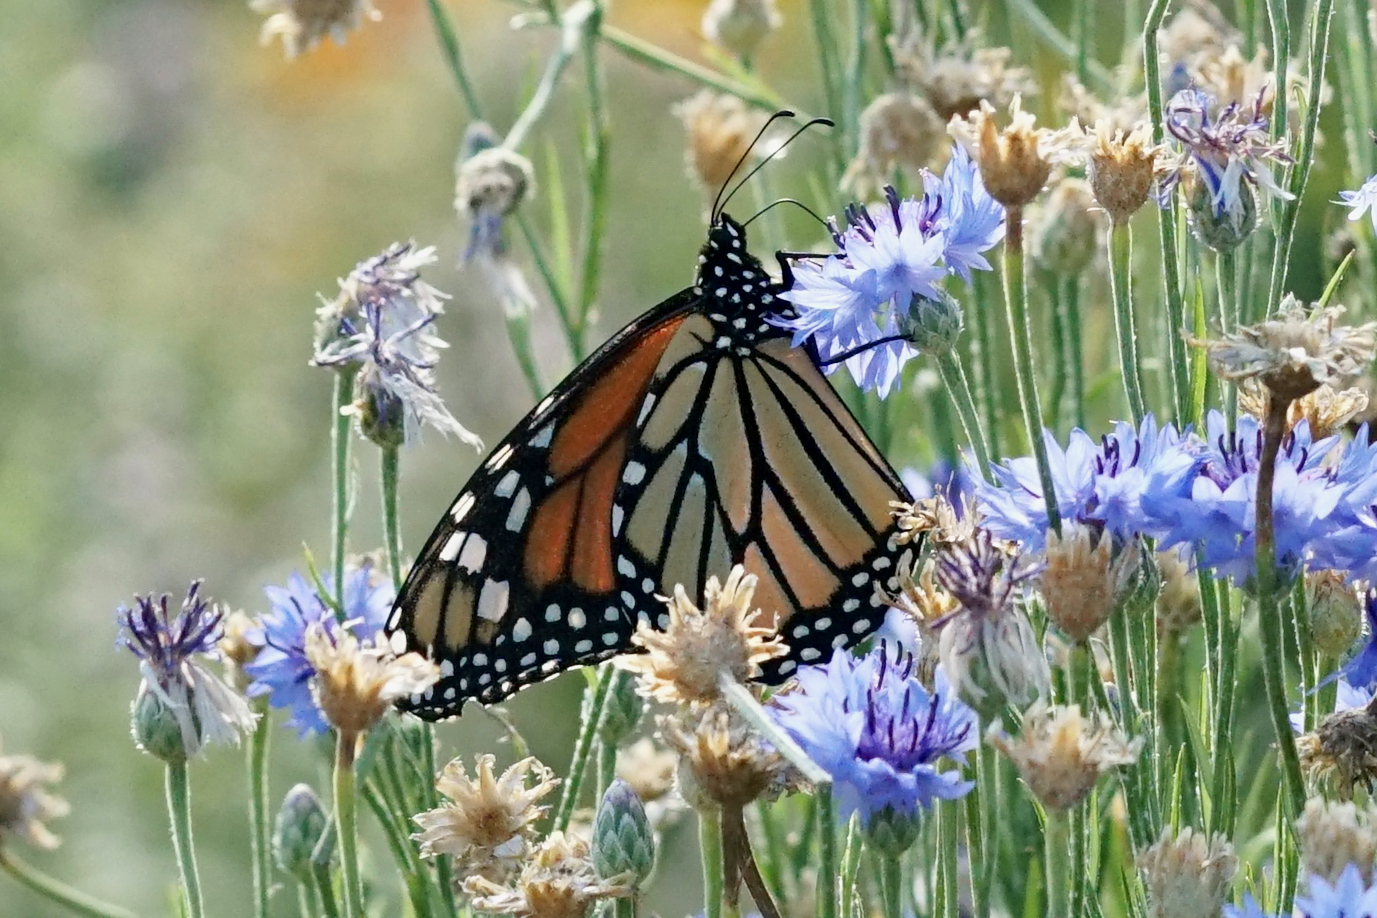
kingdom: Animalia
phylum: Arthropoda
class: Insecta
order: Lepidoptera
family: Nymphalidae
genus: Danaus
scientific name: Danaus plexippus
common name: Monarch
